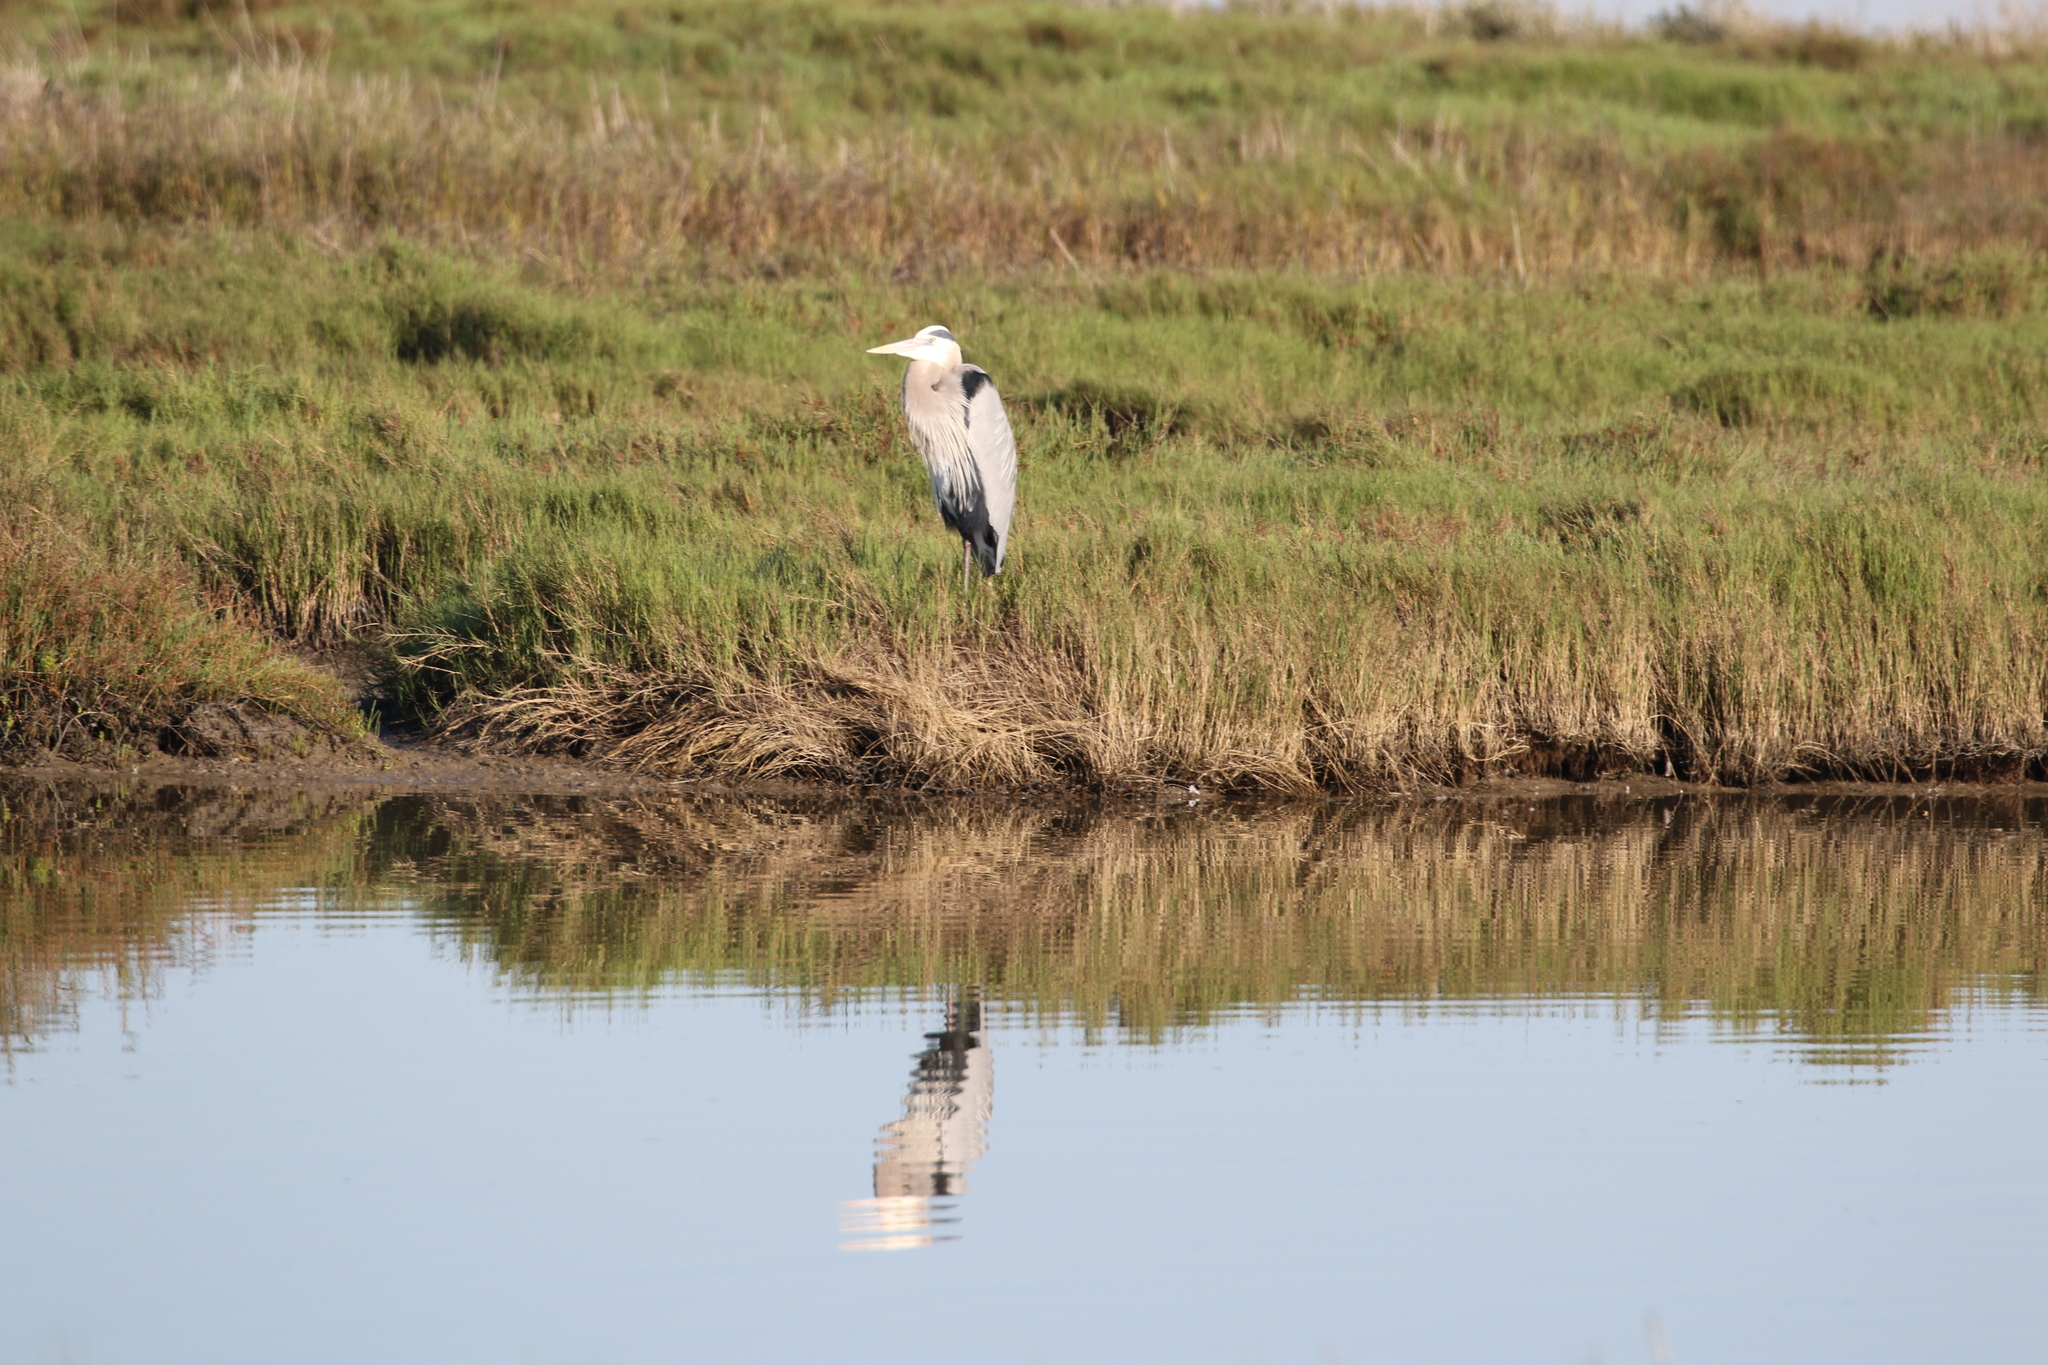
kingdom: Animalia
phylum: Chordata
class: Aves
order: Pelecaniformes
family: Ardeidae
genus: Ardea
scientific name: Ardea herodias
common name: Great blue heron
